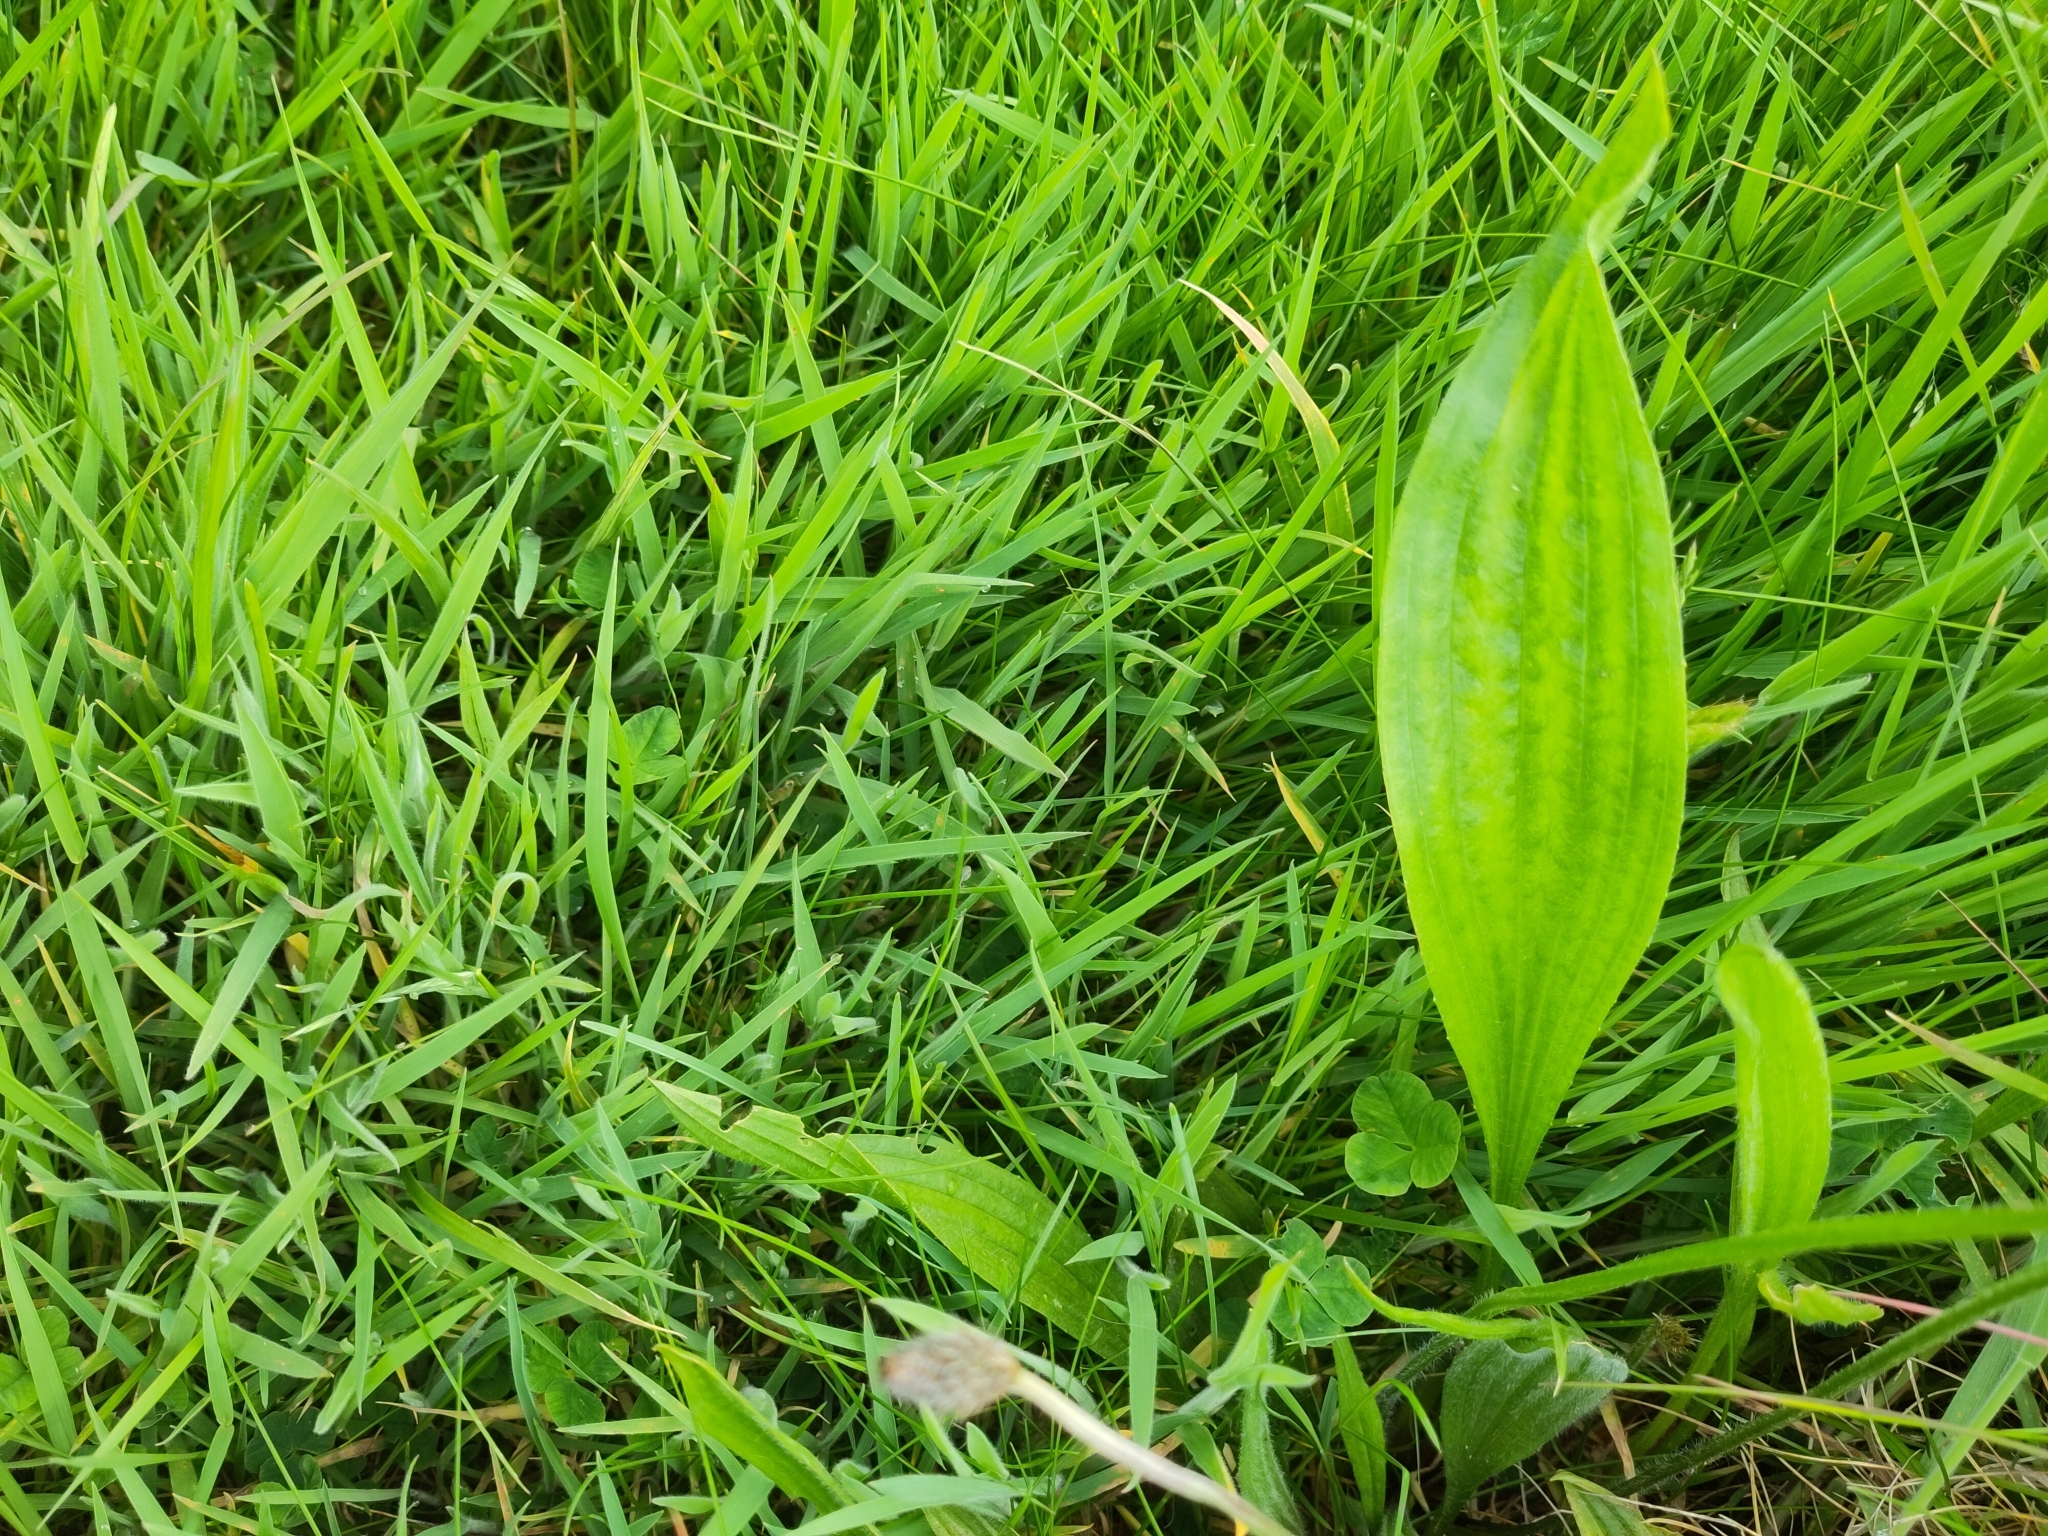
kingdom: Plantae
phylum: Tracheophyta
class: Magnoliopsida
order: Lamiales
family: Plantaginaceae
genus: Plantago
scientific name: Plantago lanceolata
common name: Ribwort plantain
